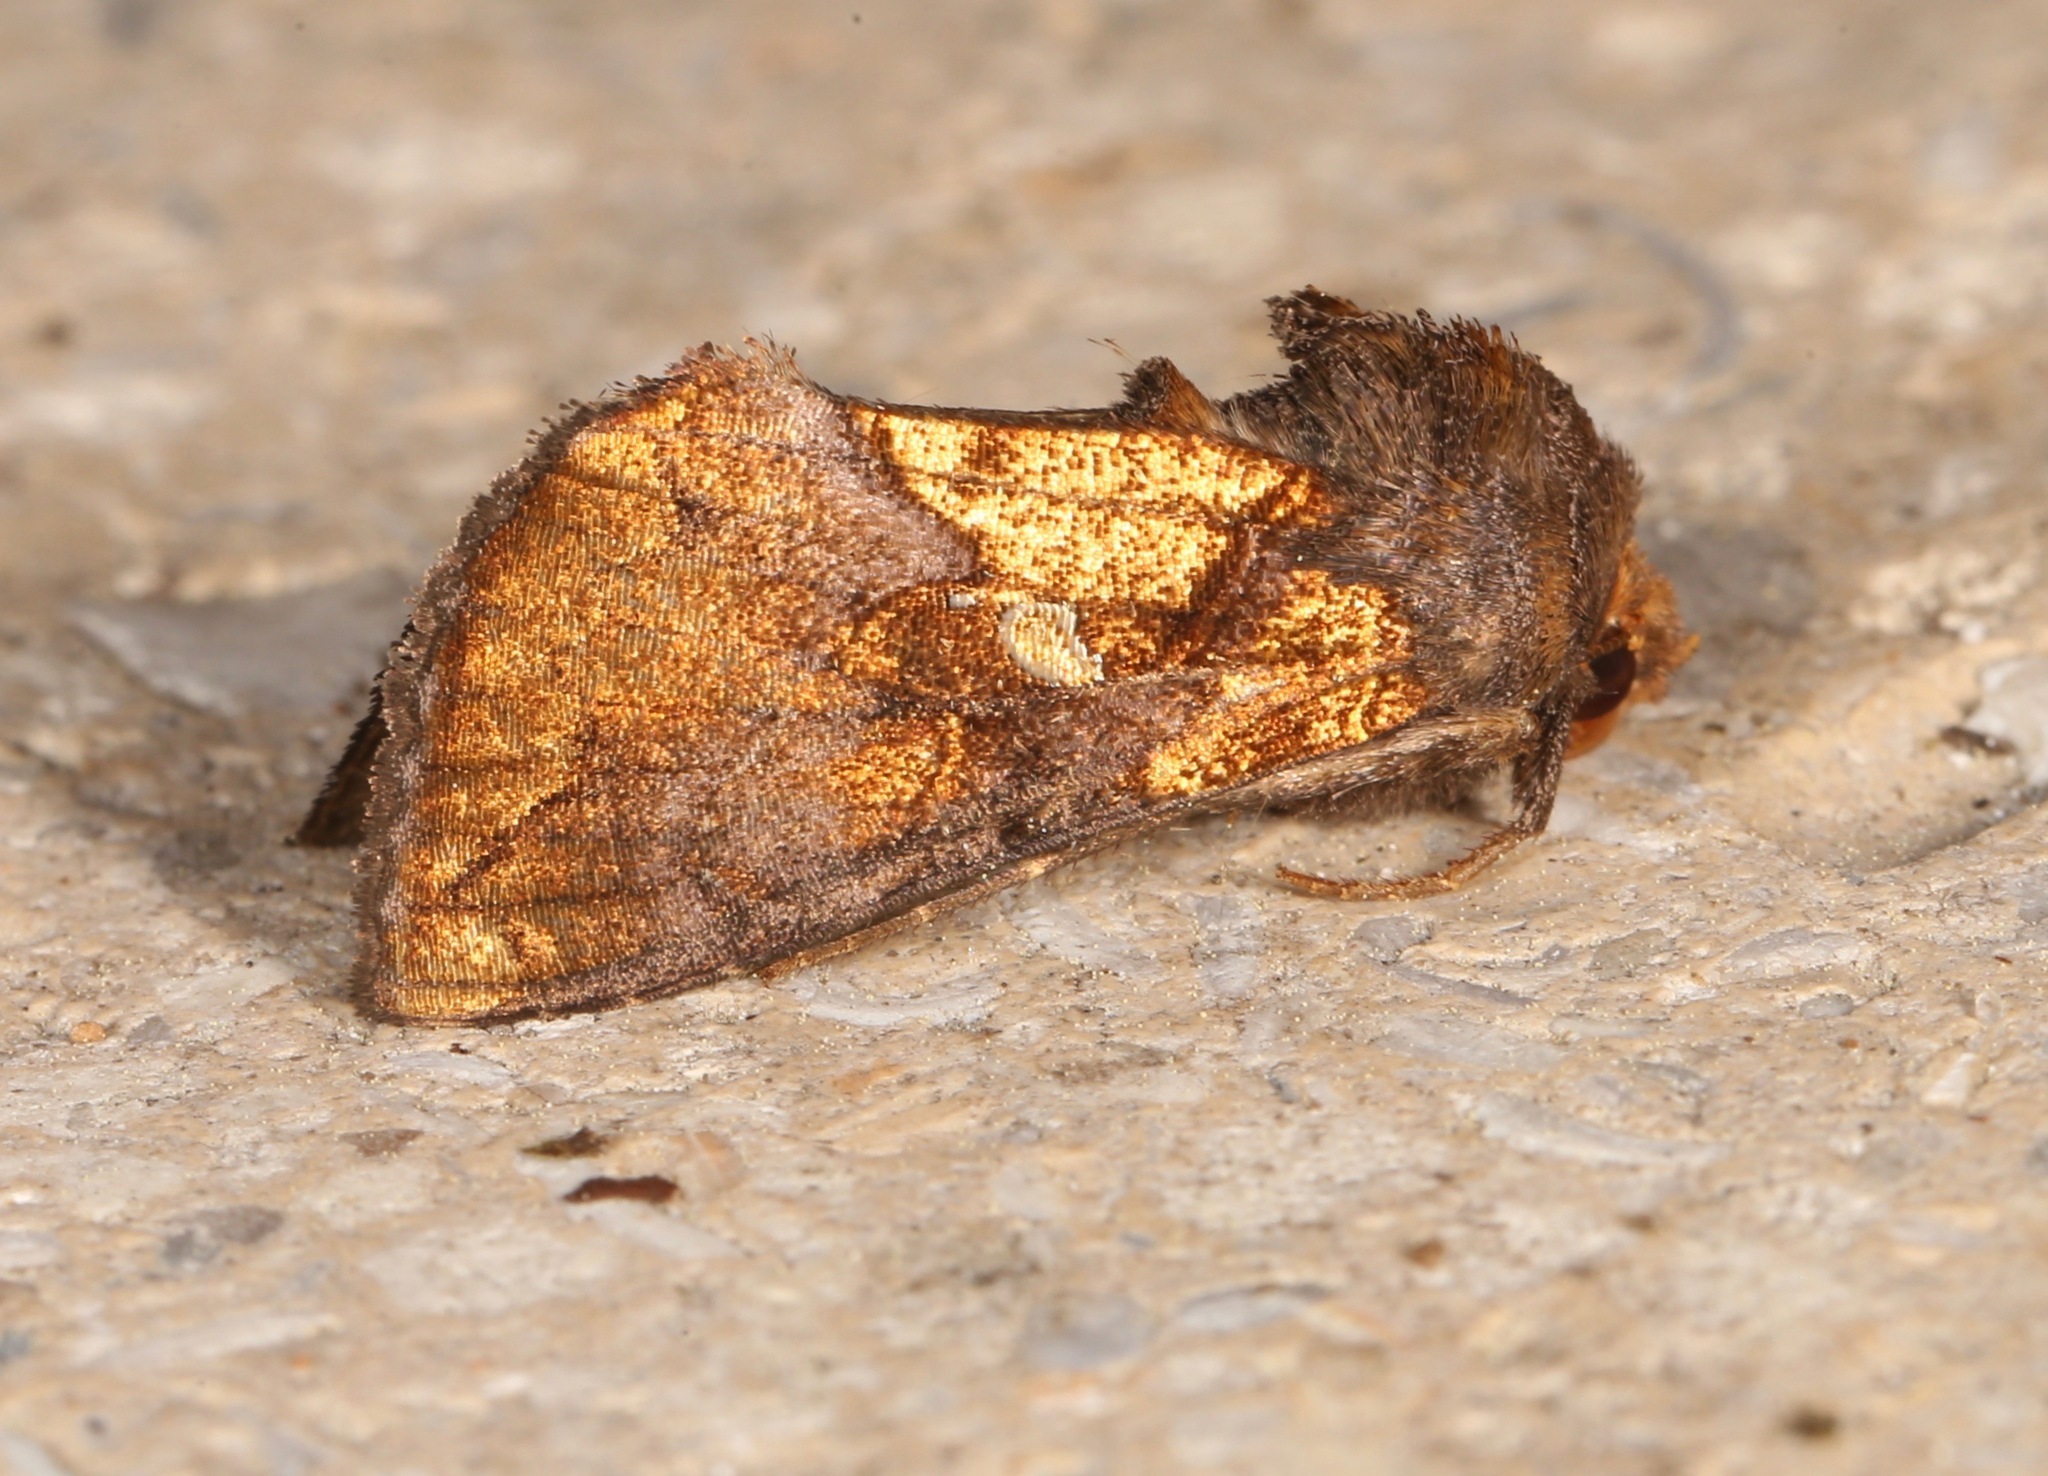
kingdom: Animalia
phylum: Arthropoda
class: Insecta
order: Lepidoptera
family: Noctuidae
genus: Argyrogramma
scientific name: Argyrogramma verruca
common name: Golden looper moth
